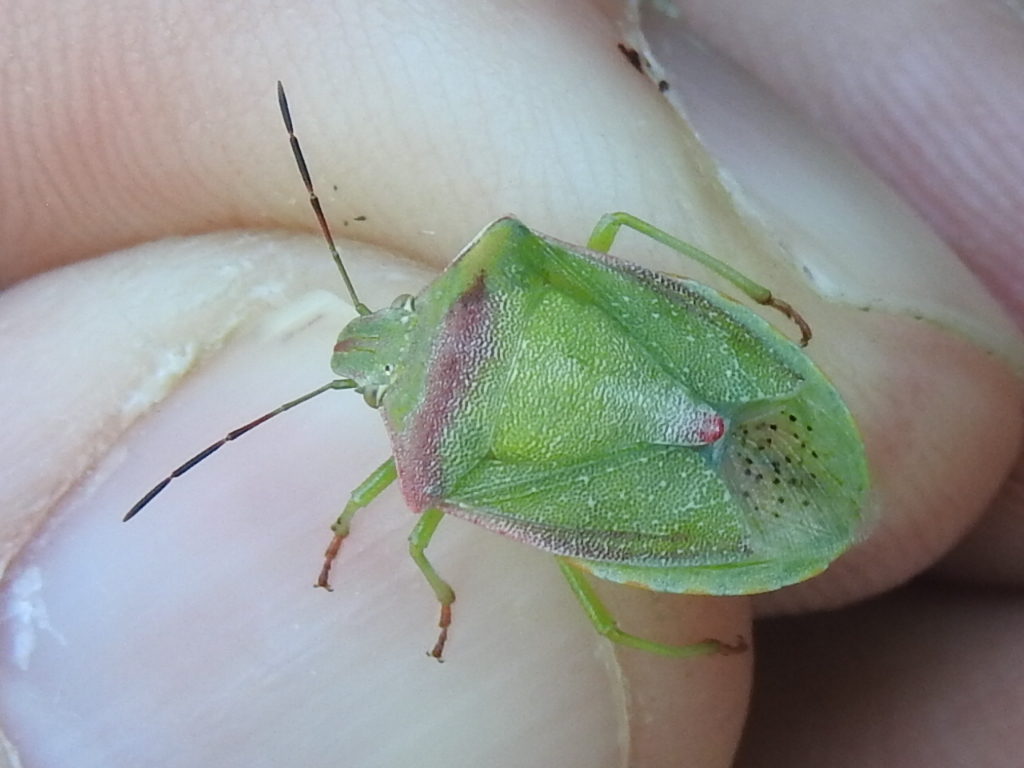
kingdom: Animalia
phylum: Arthropoda
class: Insecta
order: Hemiptera
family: Pentatomidae
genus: Thyanta
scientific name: Thyanta accerra
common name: Stink bug
